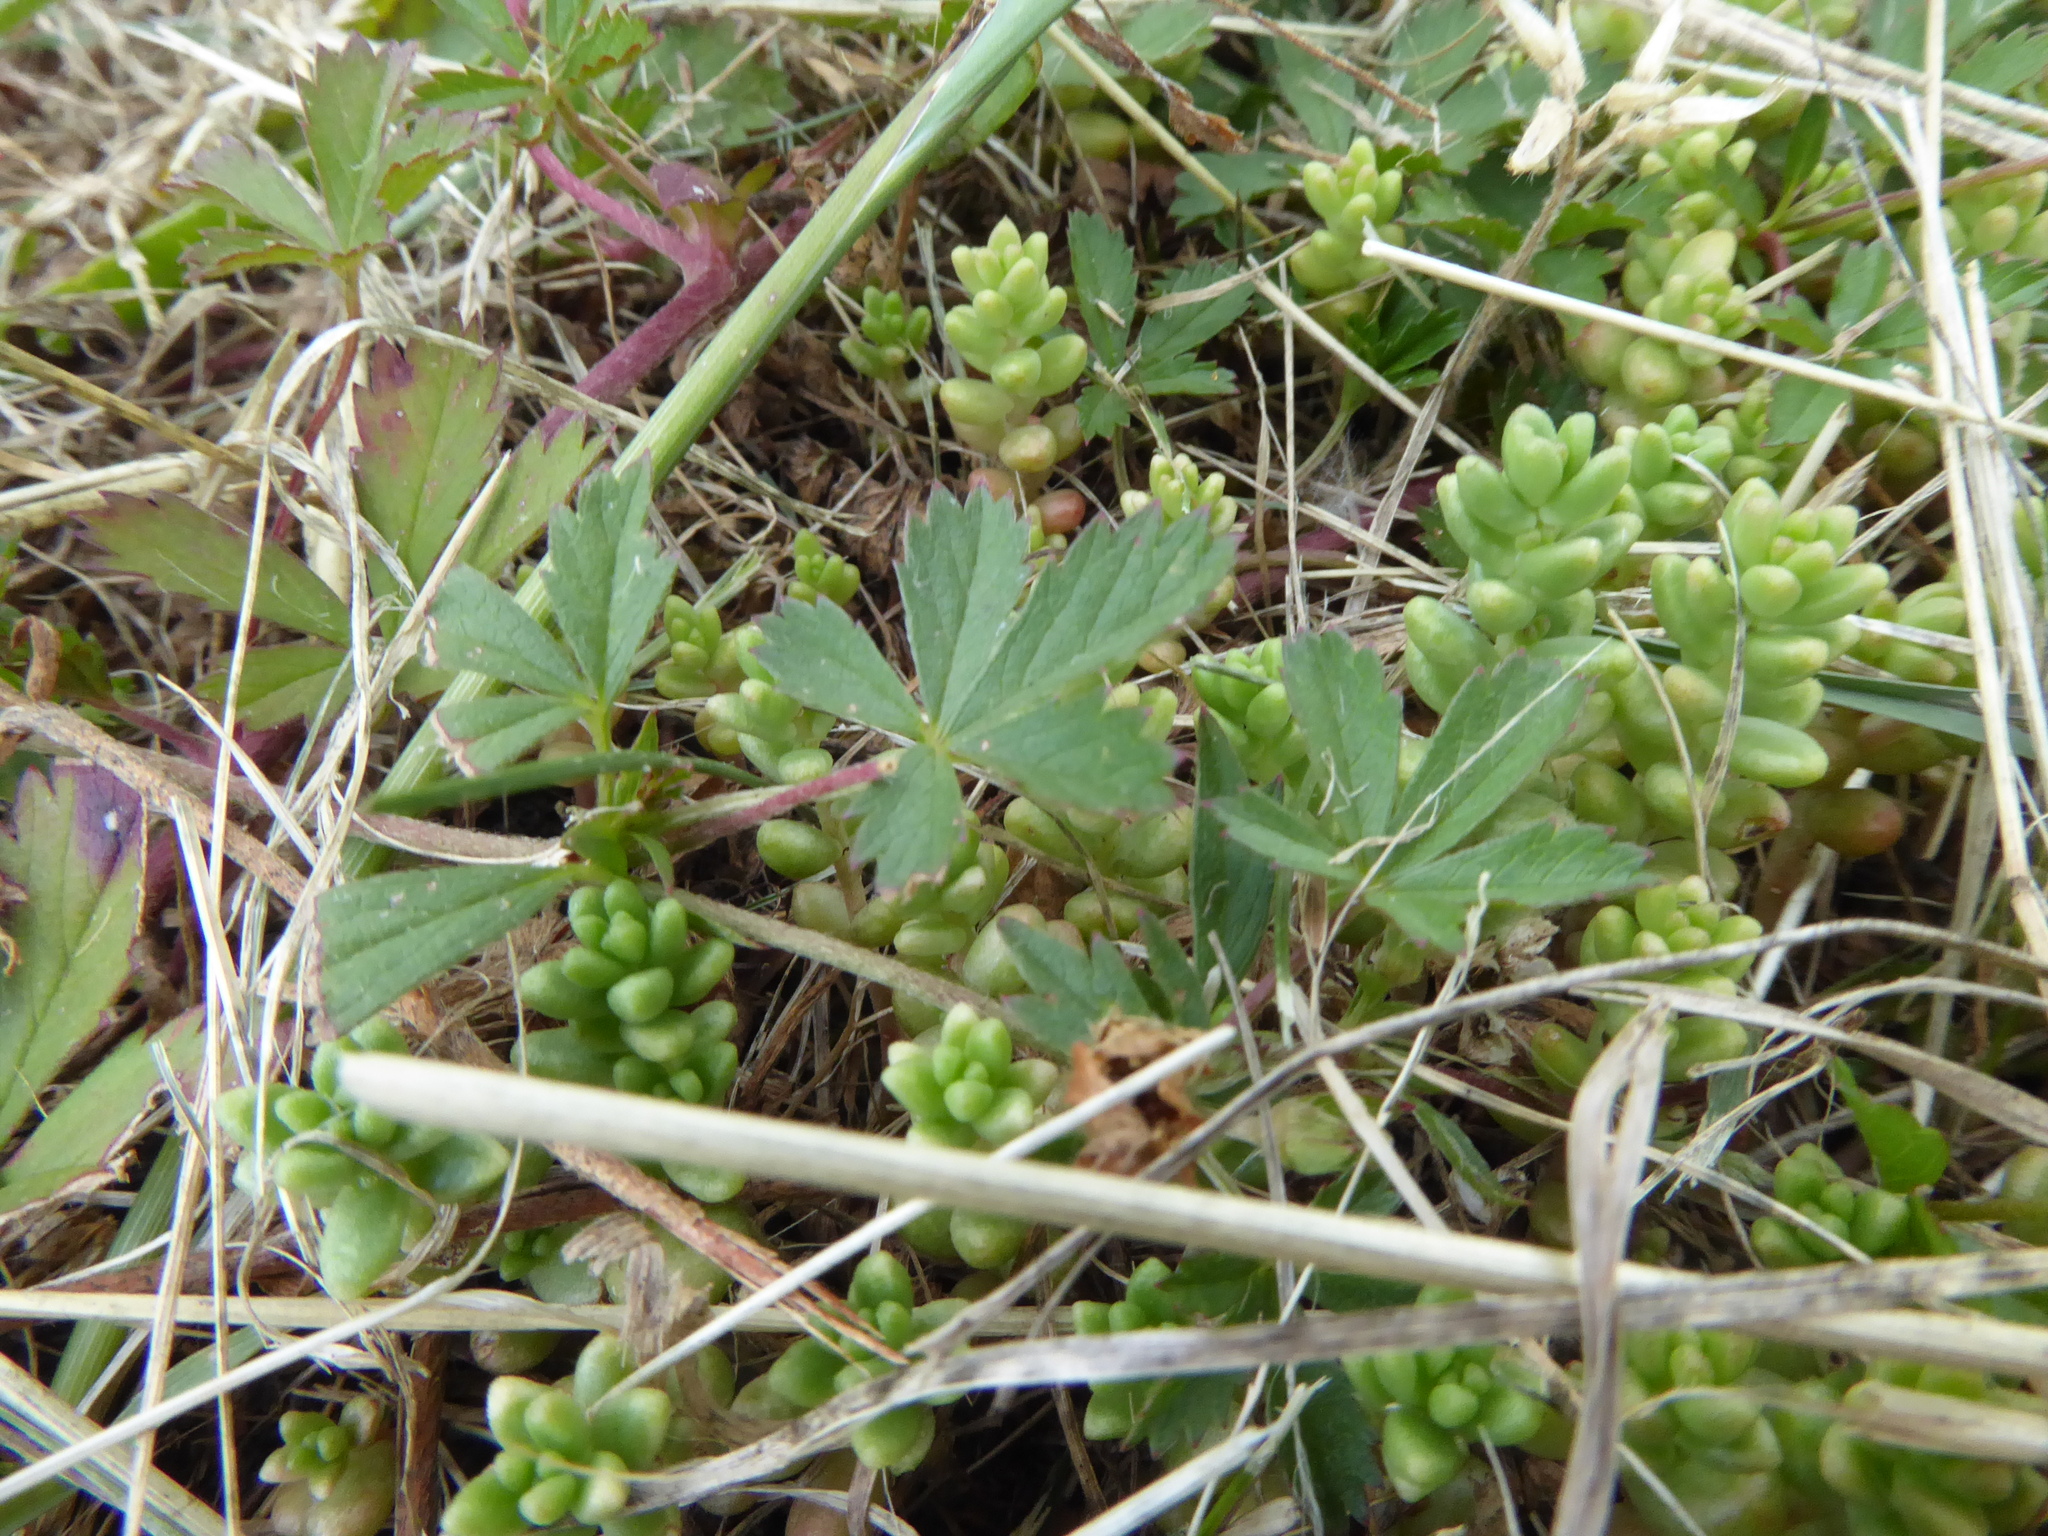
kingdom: Plantae
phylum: Tracheophyta
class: Magnoliopsida
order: Rosales
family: Rosaceae
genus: Potentilla
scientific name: Potentilla erecta
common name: Tormentil
